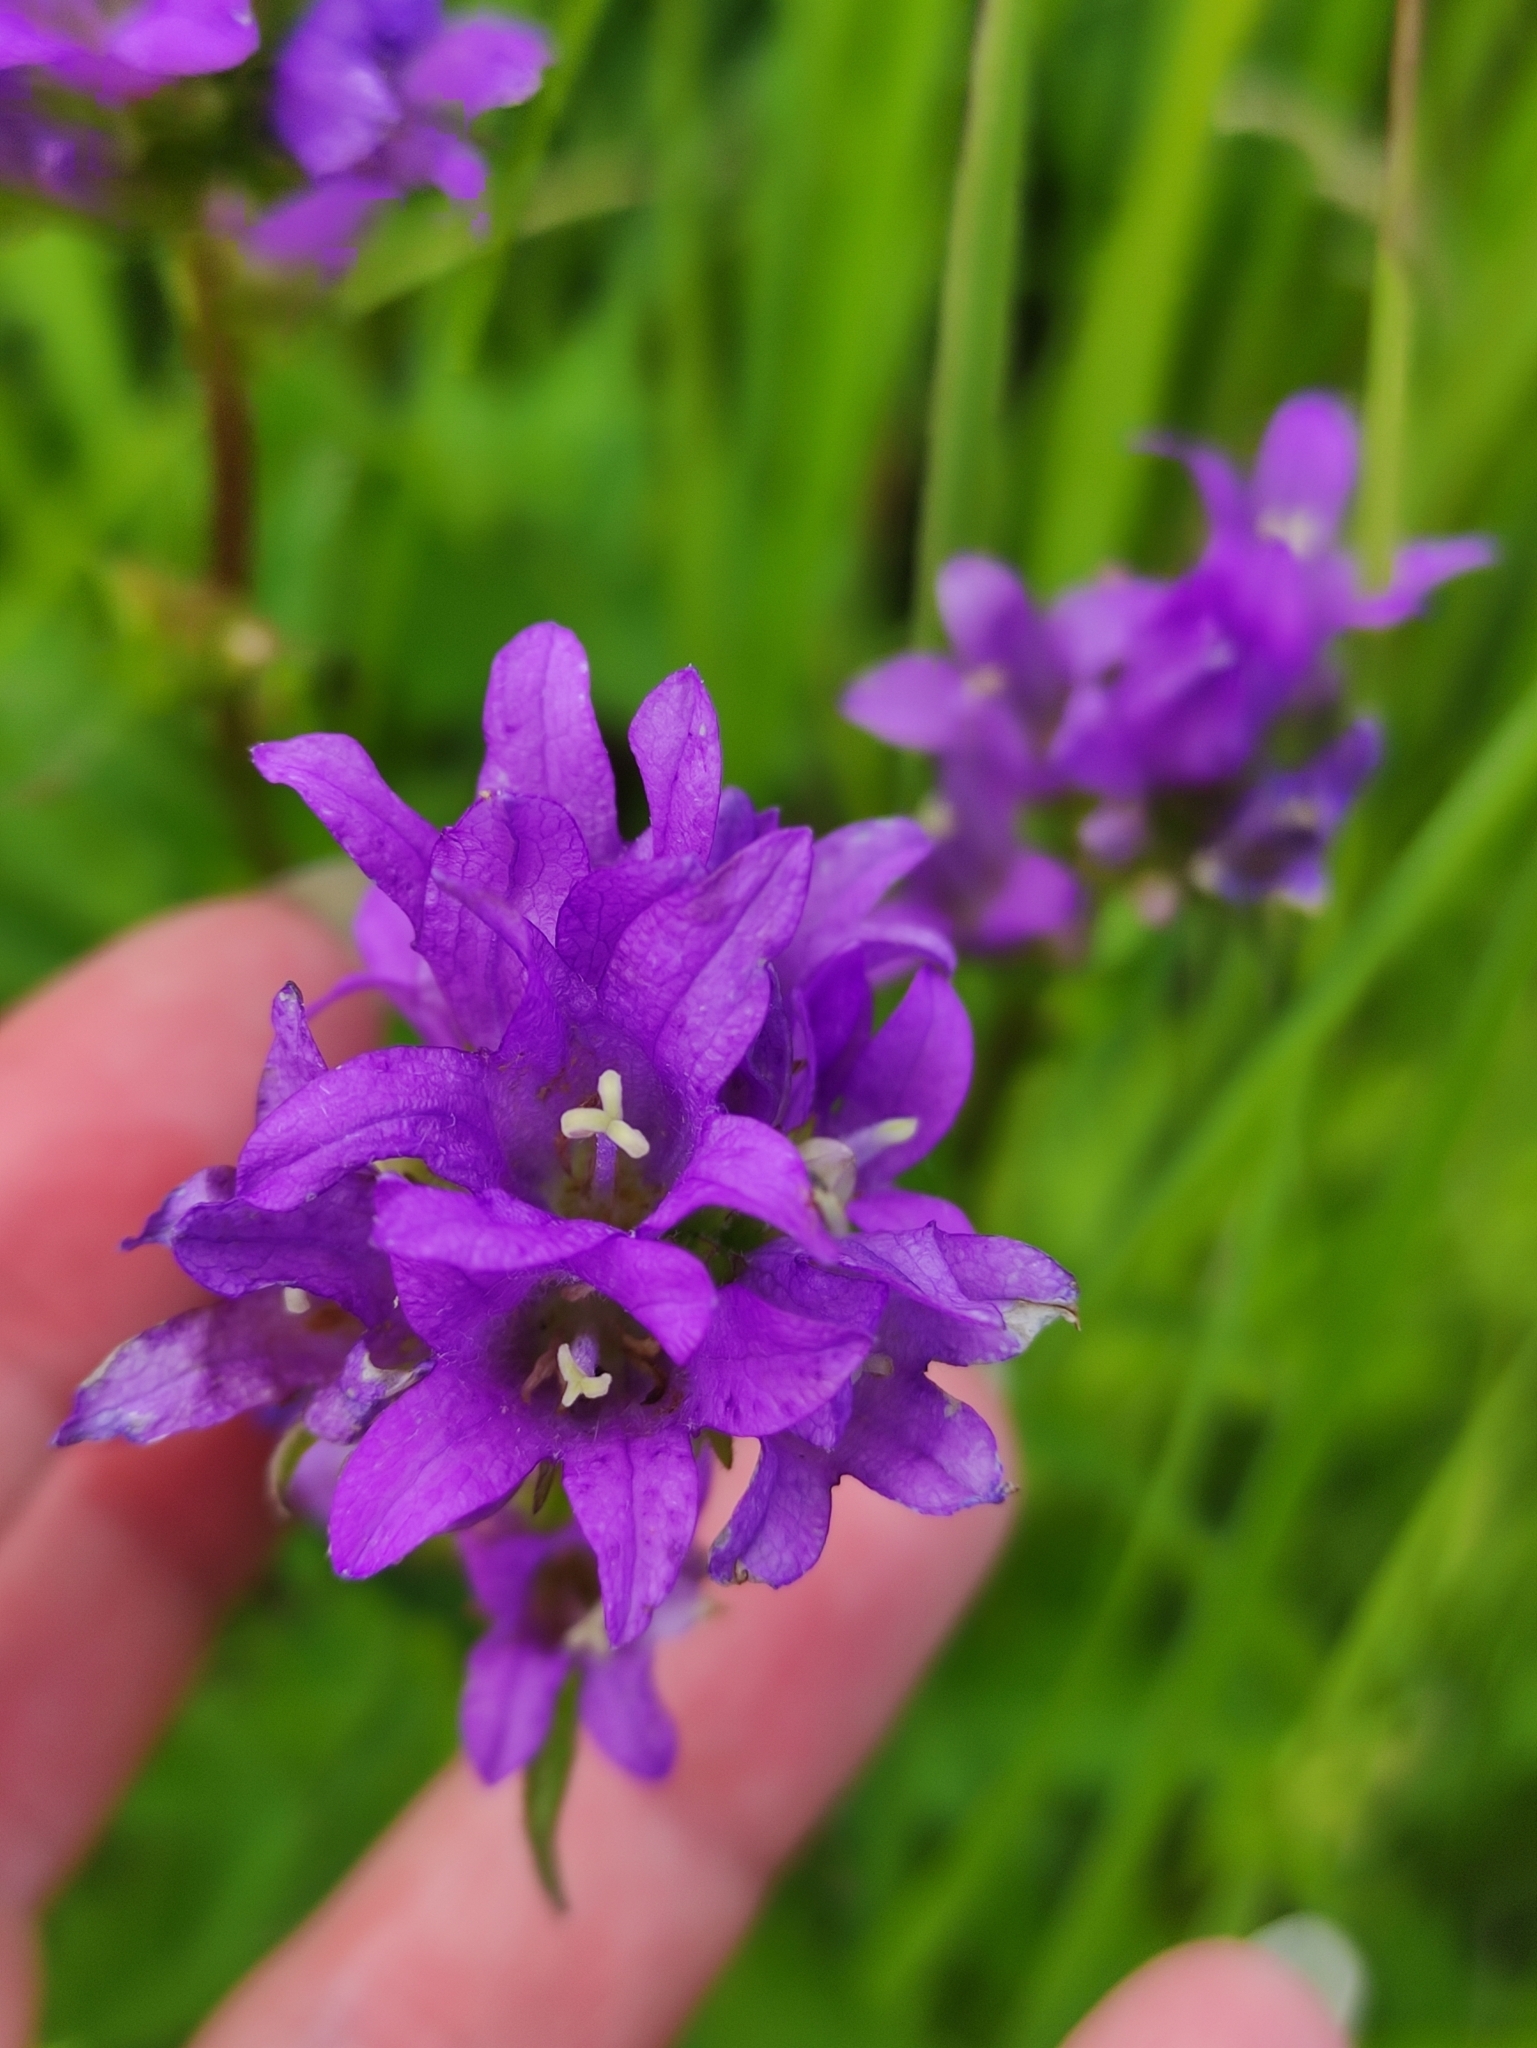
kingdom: Plantae
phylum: Tracheophyta
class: Magnoliopsida
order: Asterales
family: Campanulaceae
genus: Campanula
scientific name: Campanula glomerata
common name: Clustered bellflower
